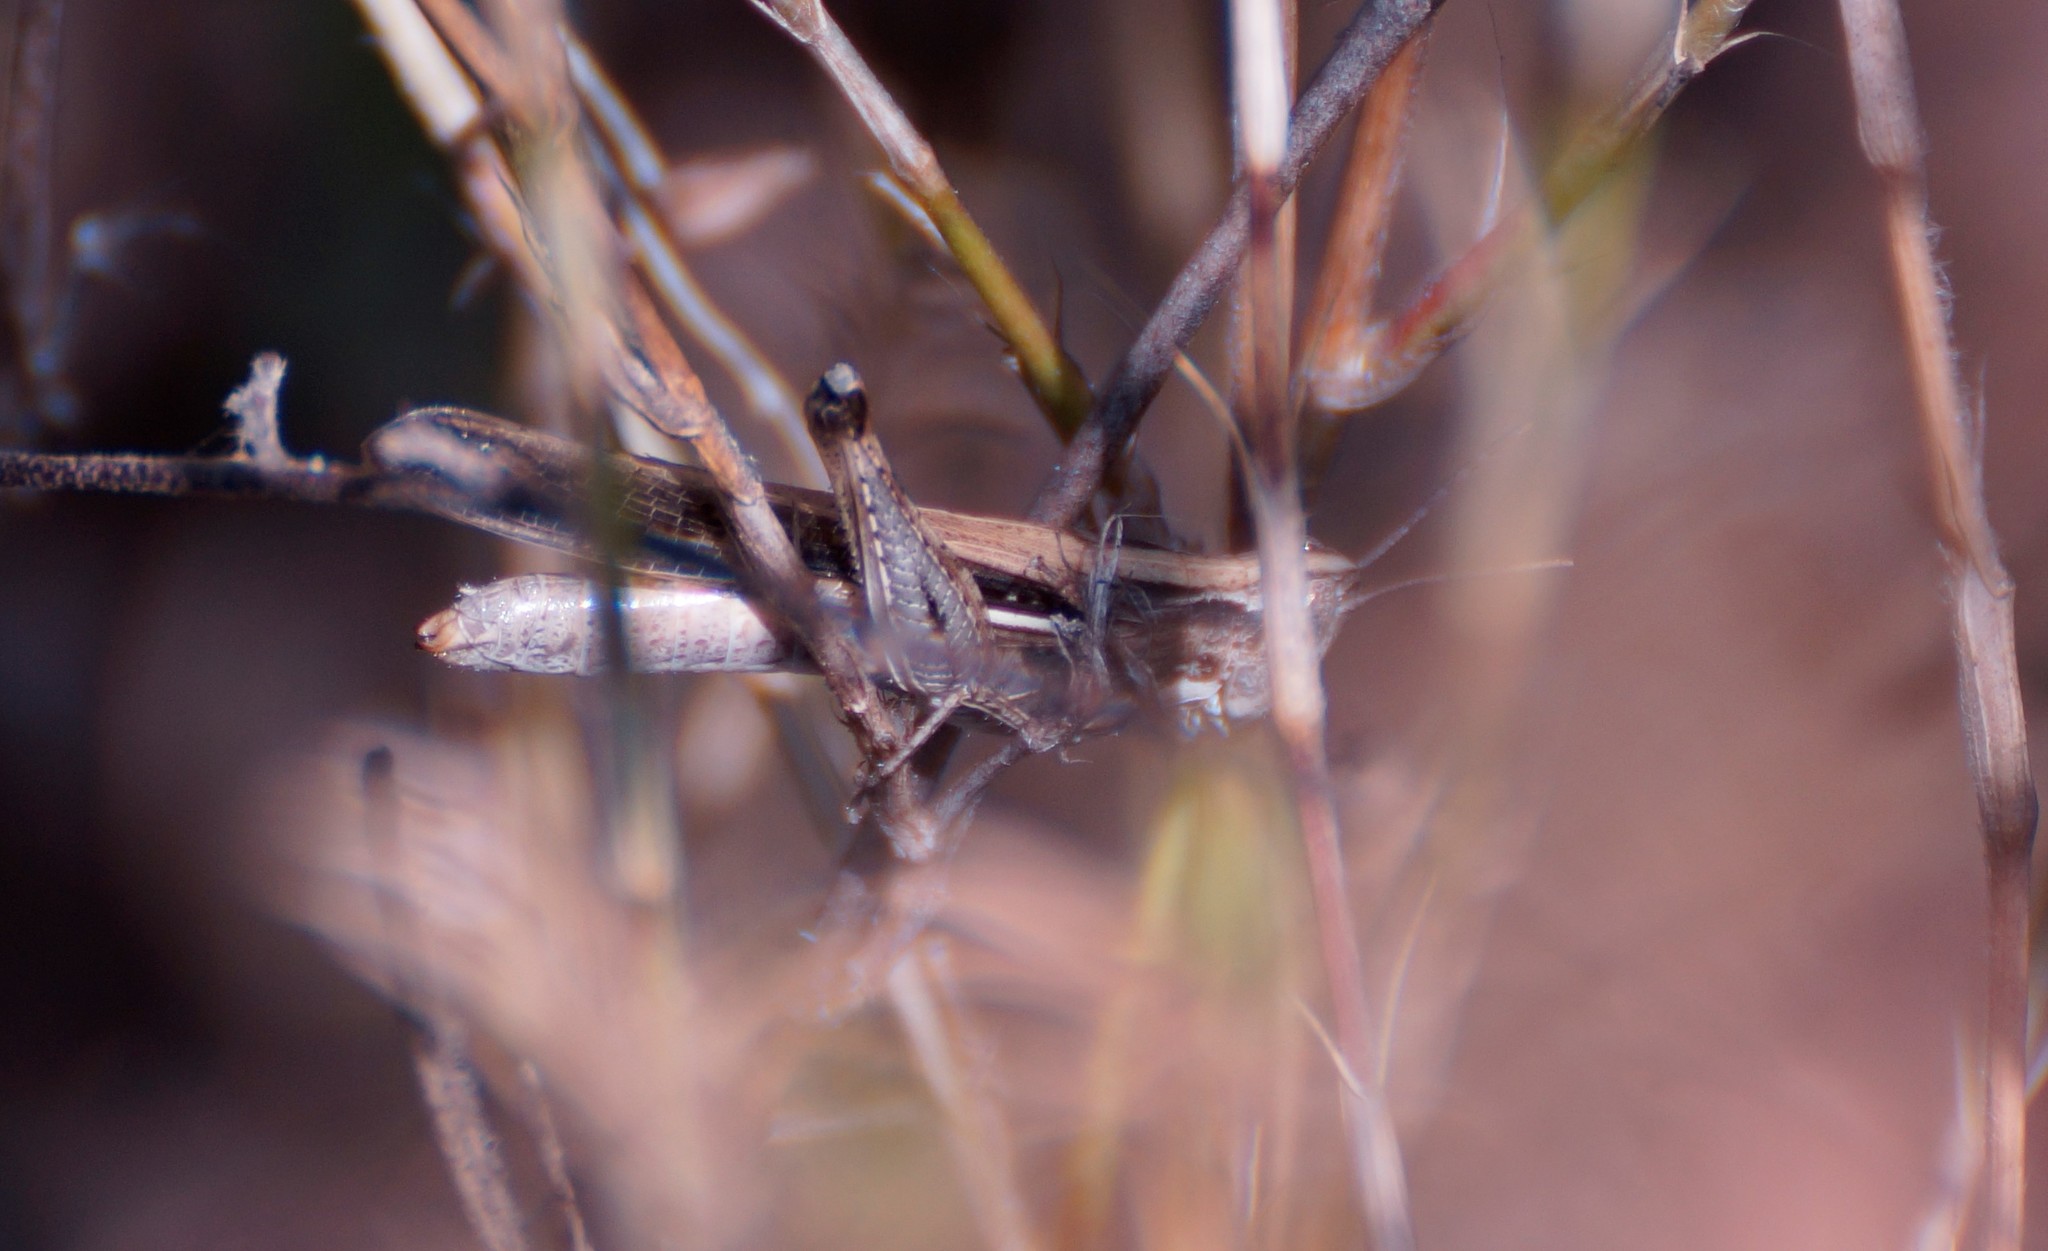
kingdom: Animalia
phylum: Arthropoda
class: Insecta
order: Orthoptera
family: Acrididae
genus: Froggattina
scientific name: Froggattina australis
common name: Froggatt's buzzer
